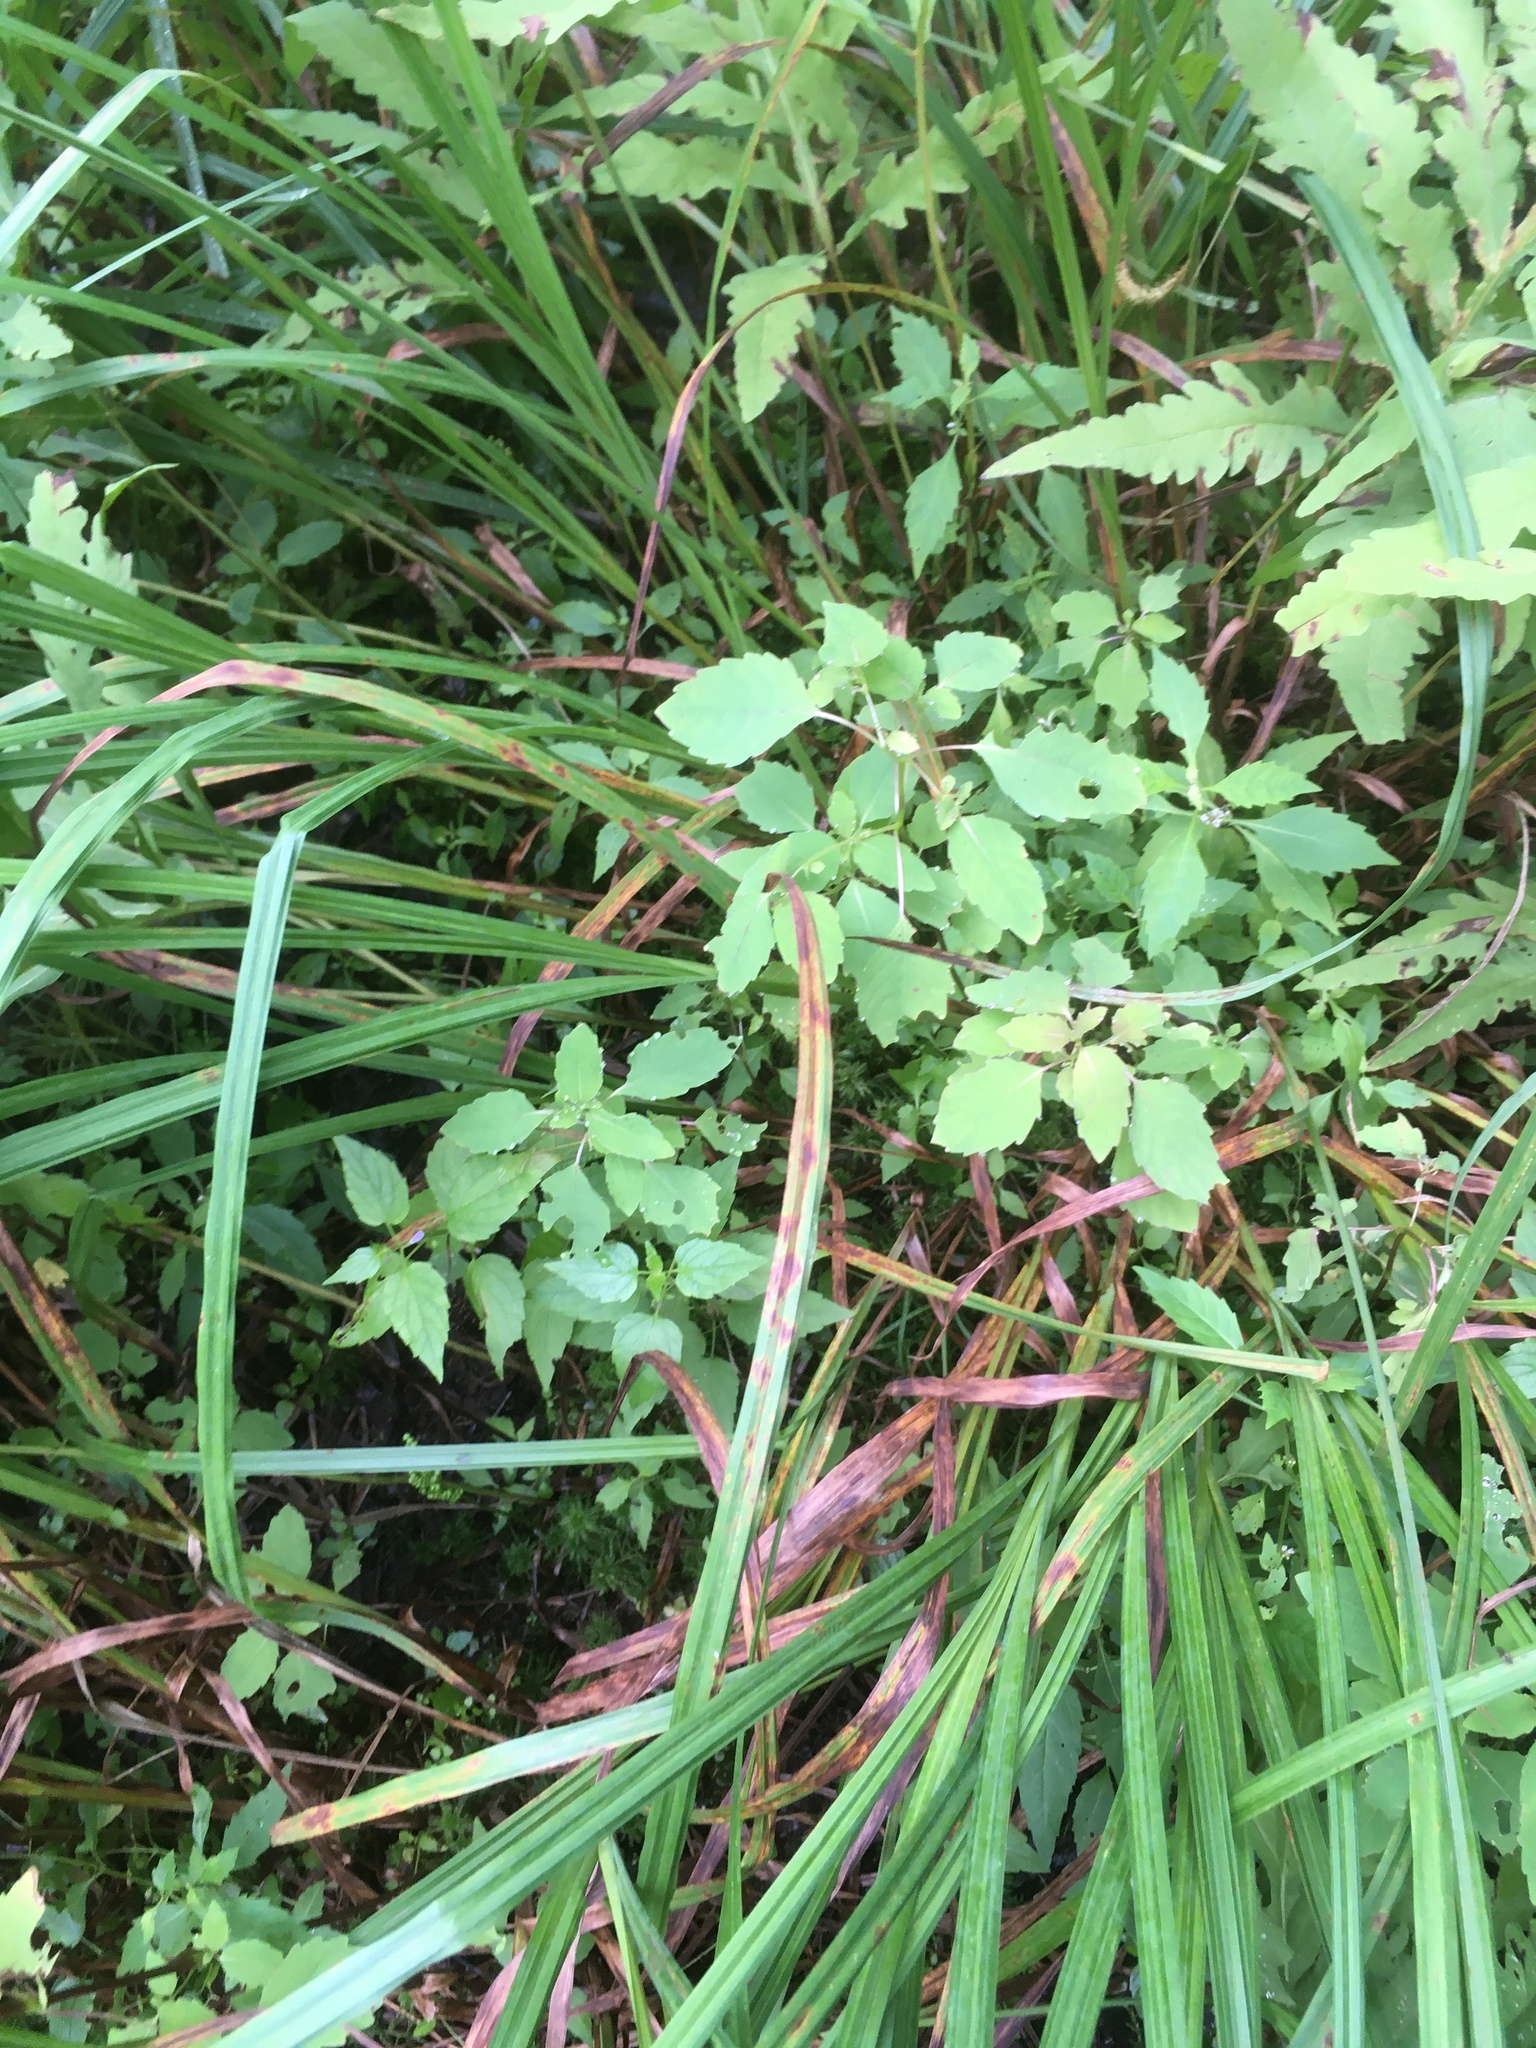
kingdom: Plantae
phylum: Tracheophyta
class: Magnoliopsida
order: Ericales
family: Balsaminaceae
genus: Impatiens
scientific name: Impatiens capensis
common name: Orange balsam
